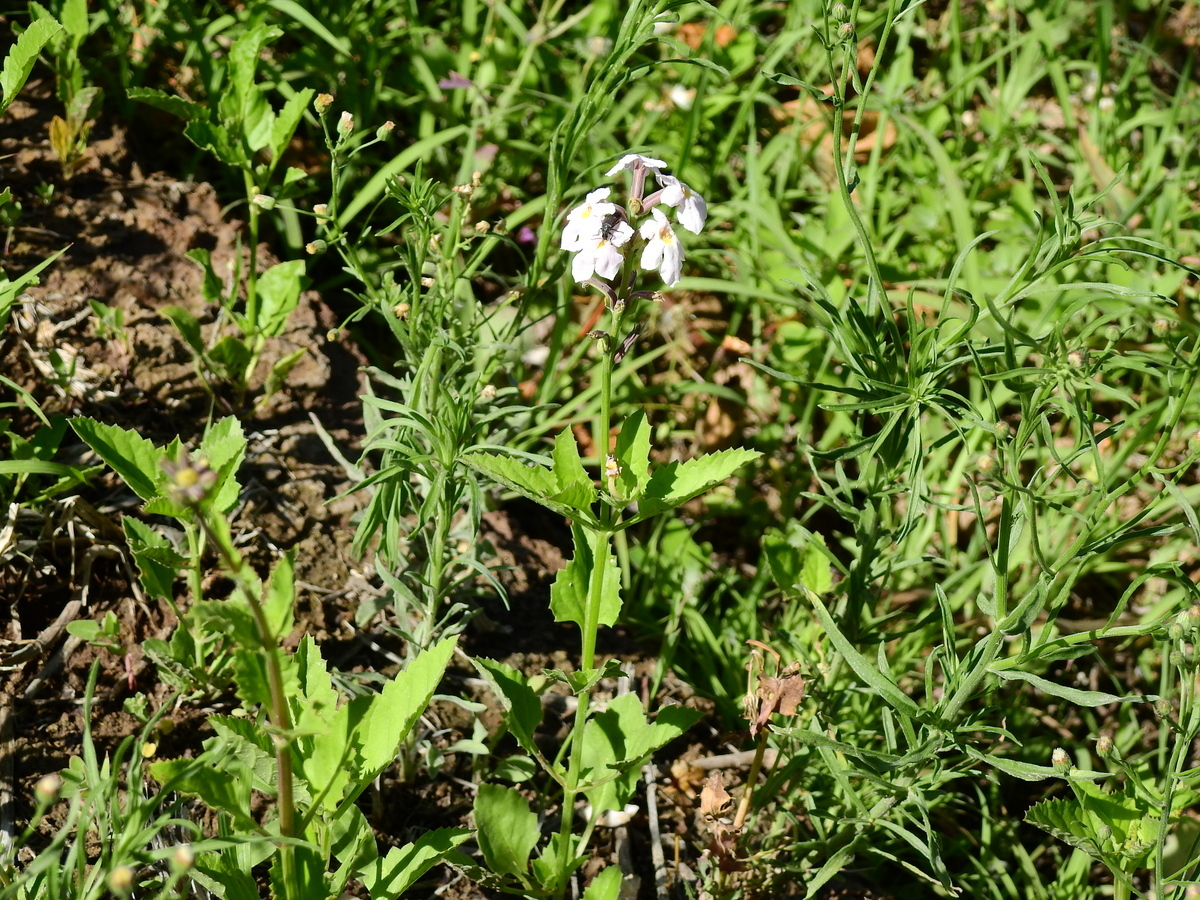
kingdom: Plantae
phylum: Tracheophyta
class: Magnoliopsida
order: Lamiales
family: Verbenaceae
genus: Pitraea
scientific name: Pitraea cuneato-ovata
